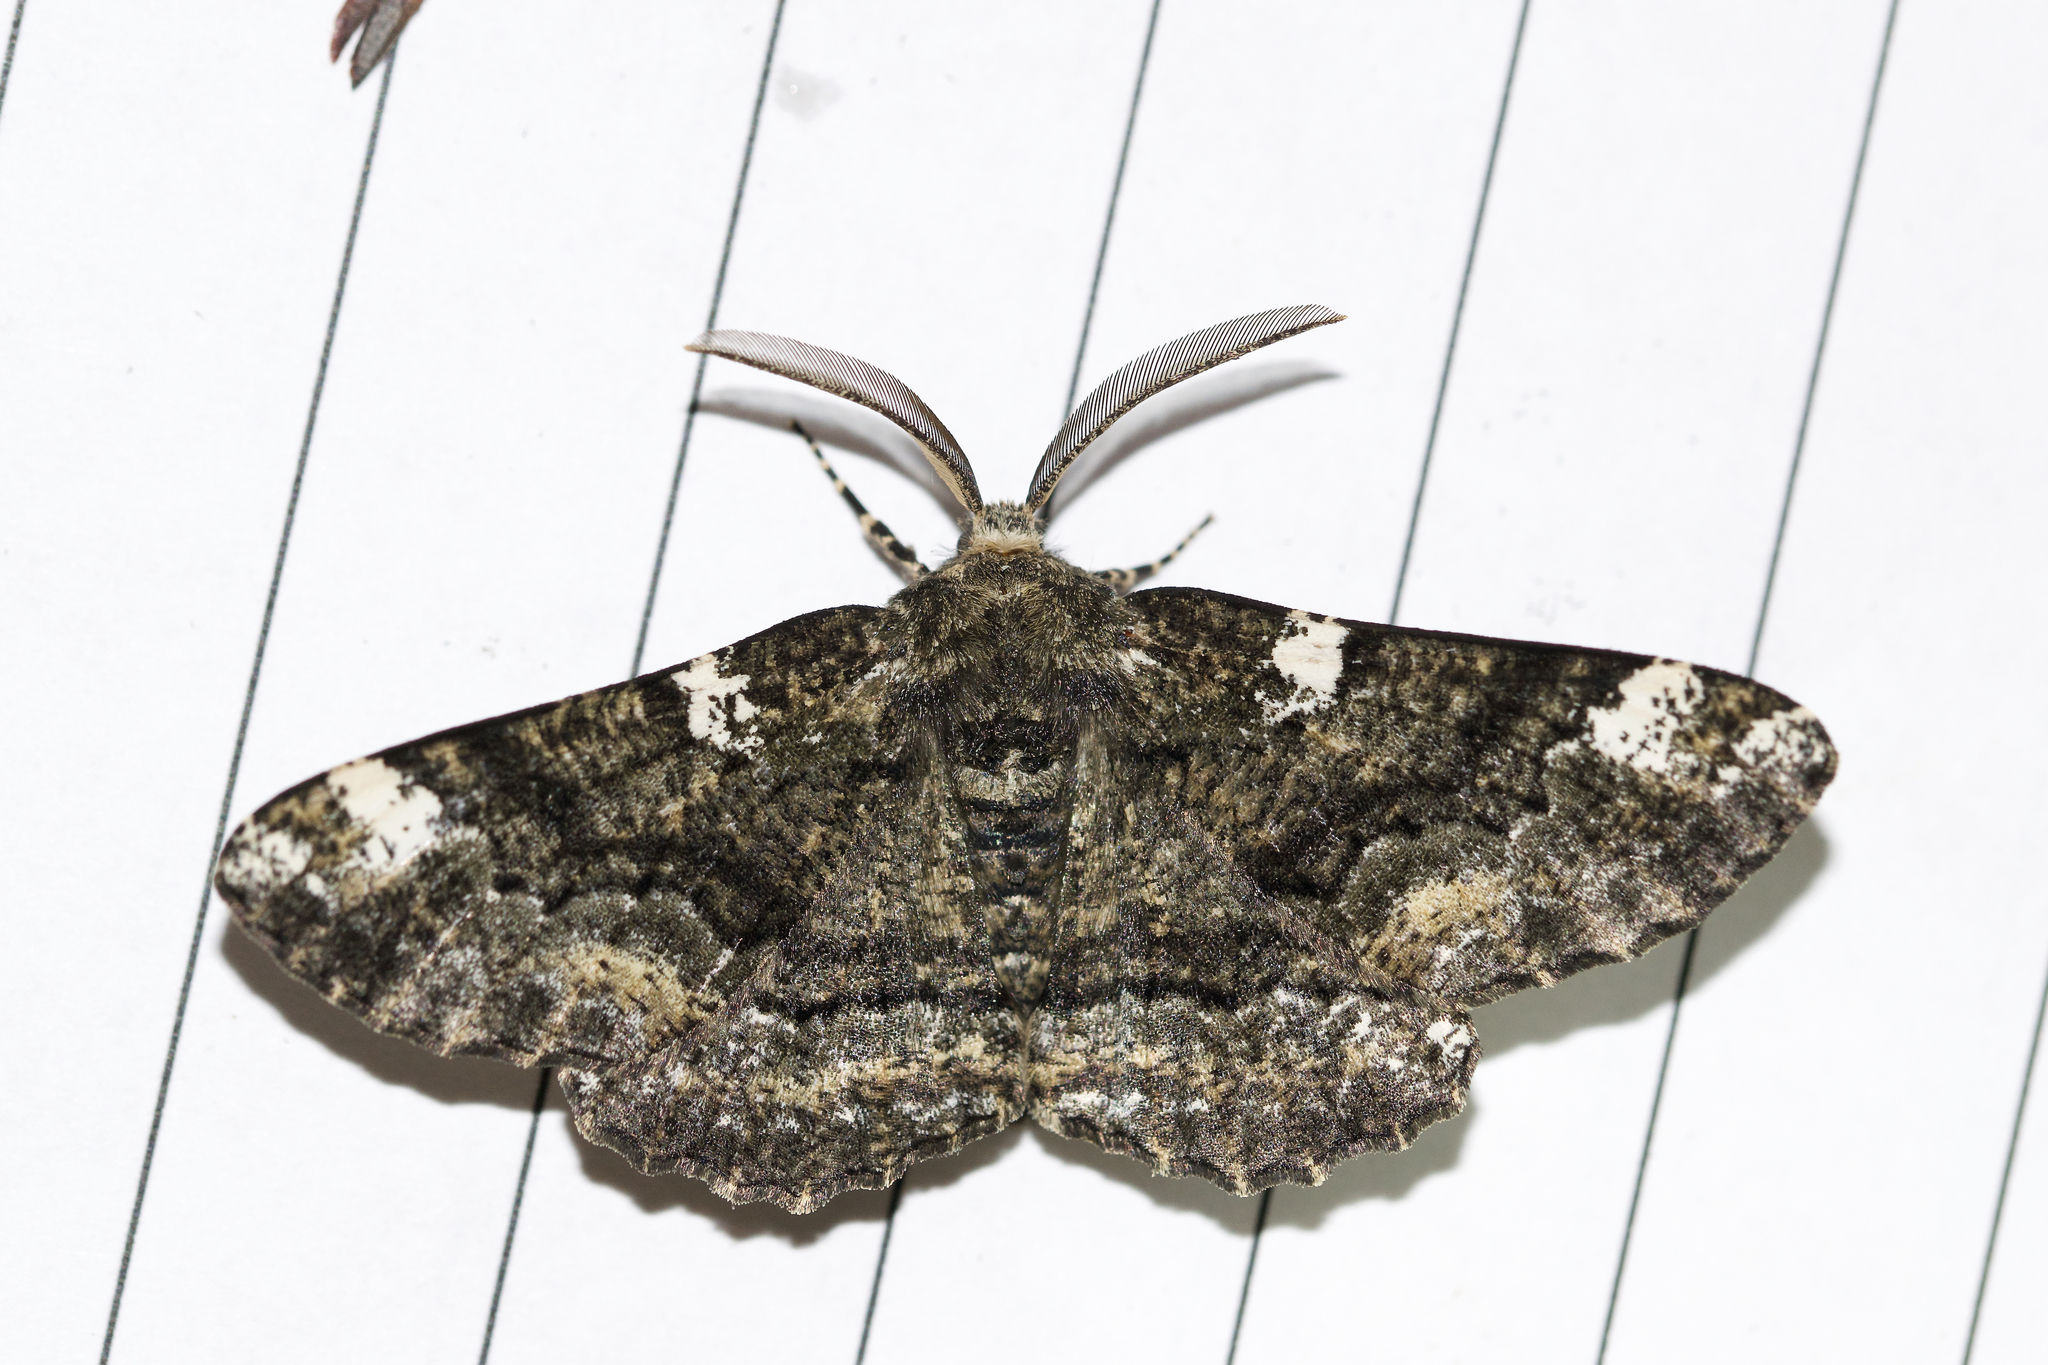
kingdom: Animalia
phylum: Arthropoda
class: Insecta
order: Lepidoptera
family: Geometridae
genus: Phaeoura
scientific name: Phaeoura quernaria
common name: Oak beauty
